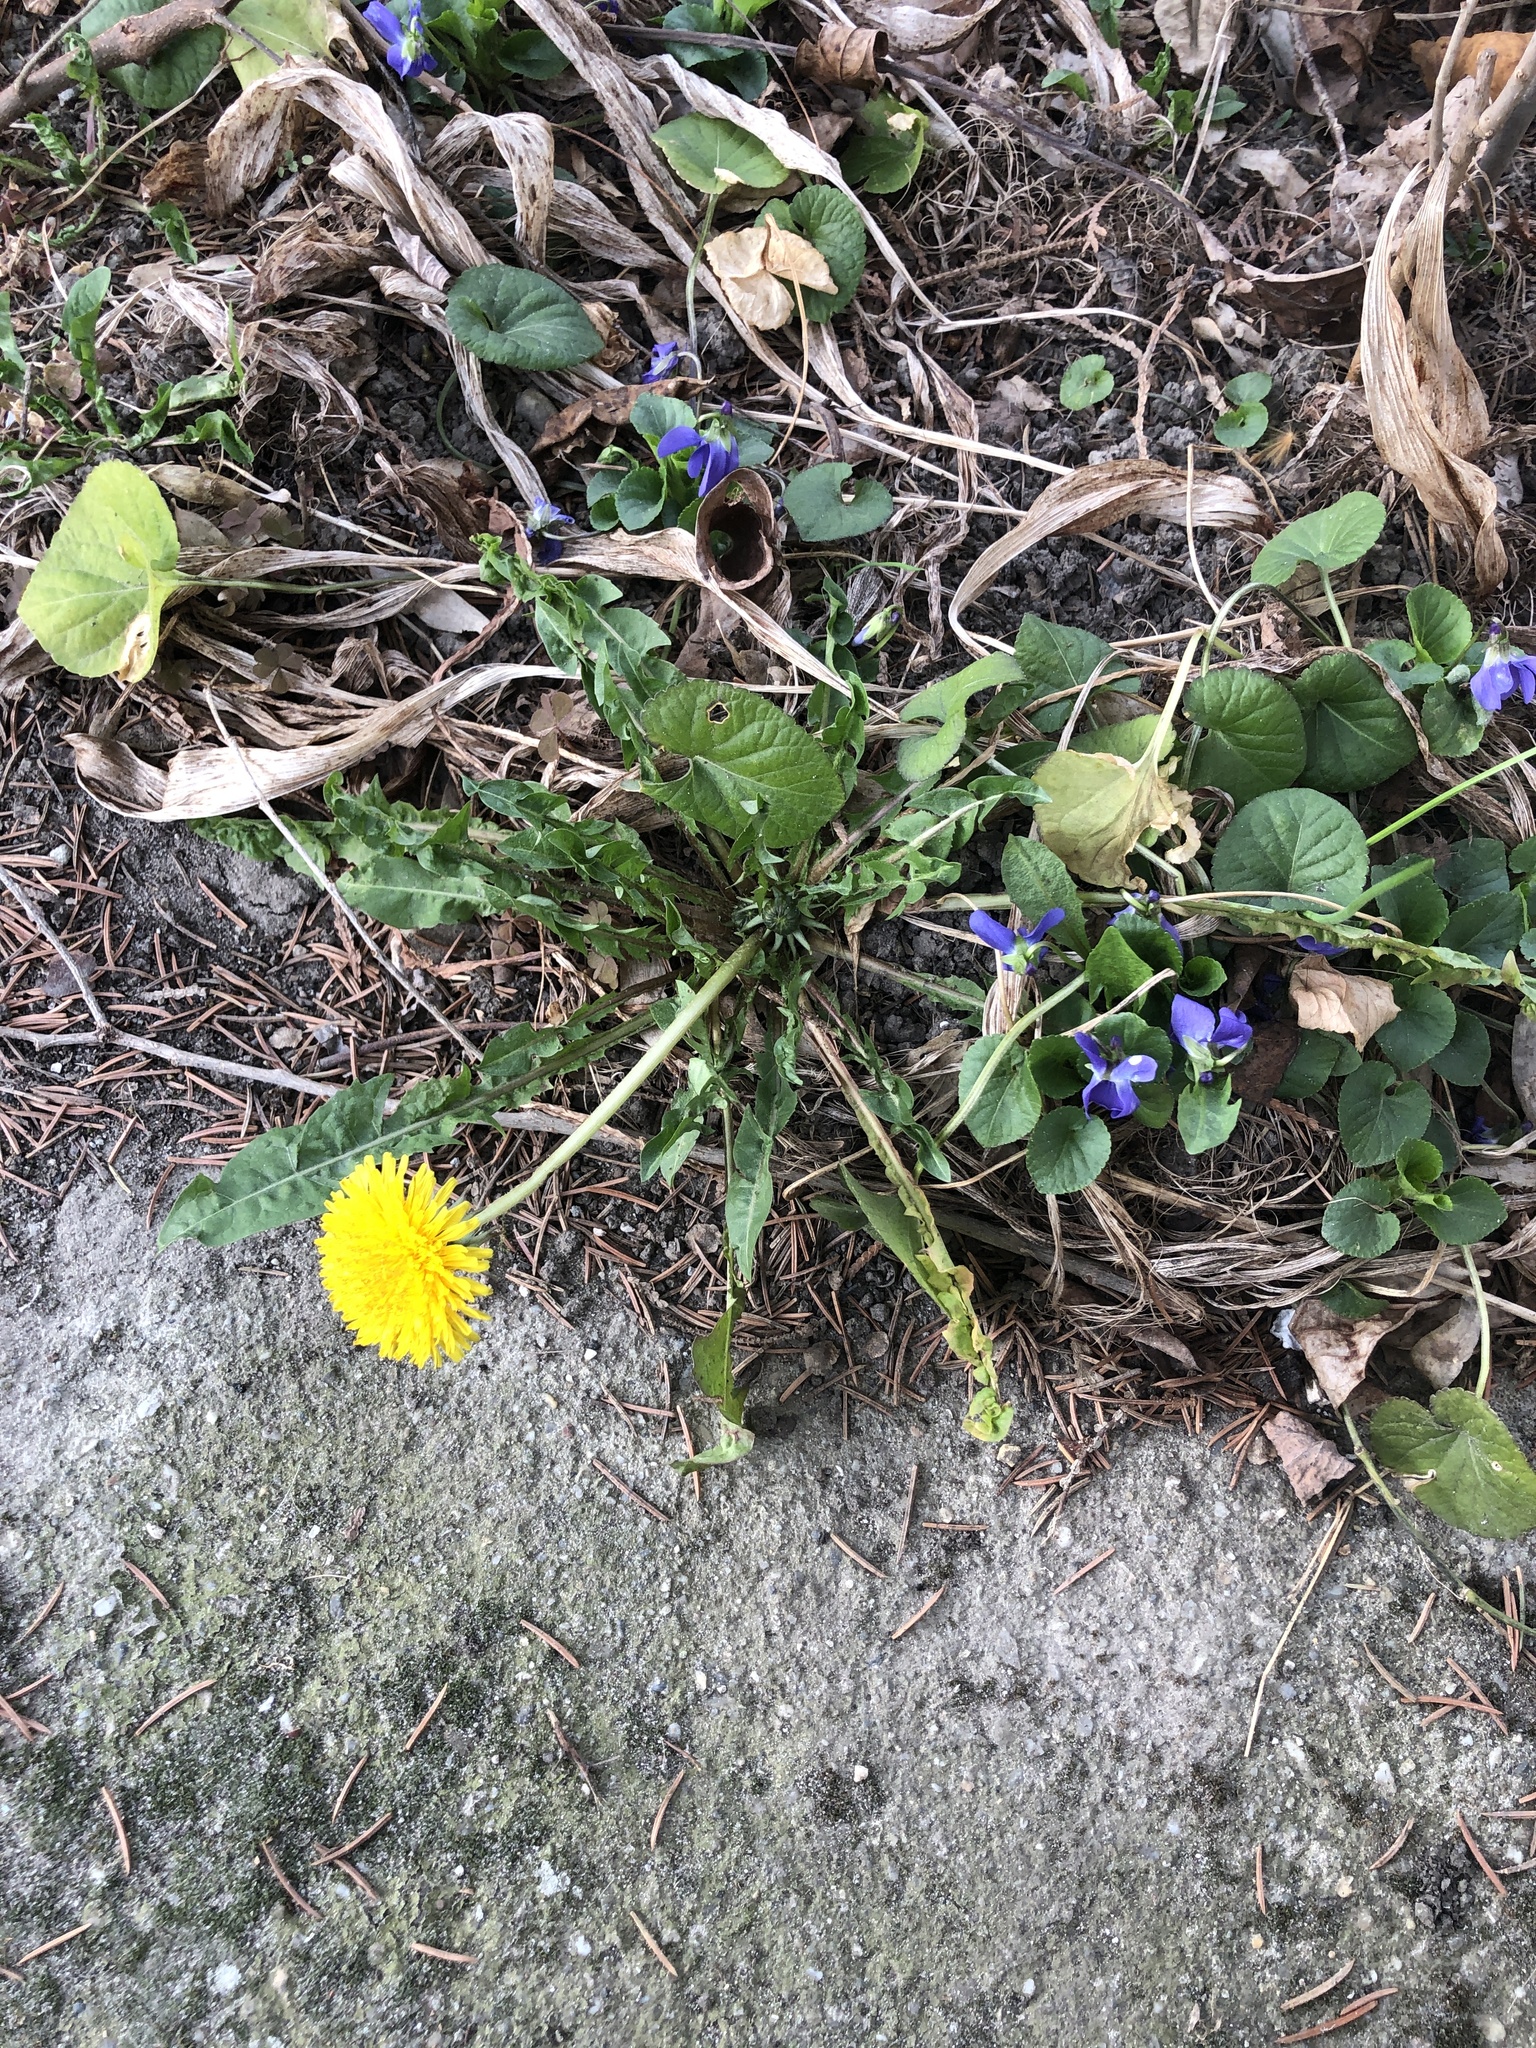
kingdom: Plantae
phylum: Tracheophyta
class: Magnoliopsida
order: Asterales
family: Asteraceae
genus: Taraxacum
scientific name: Taraxacum officinale
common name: Common dandelion
